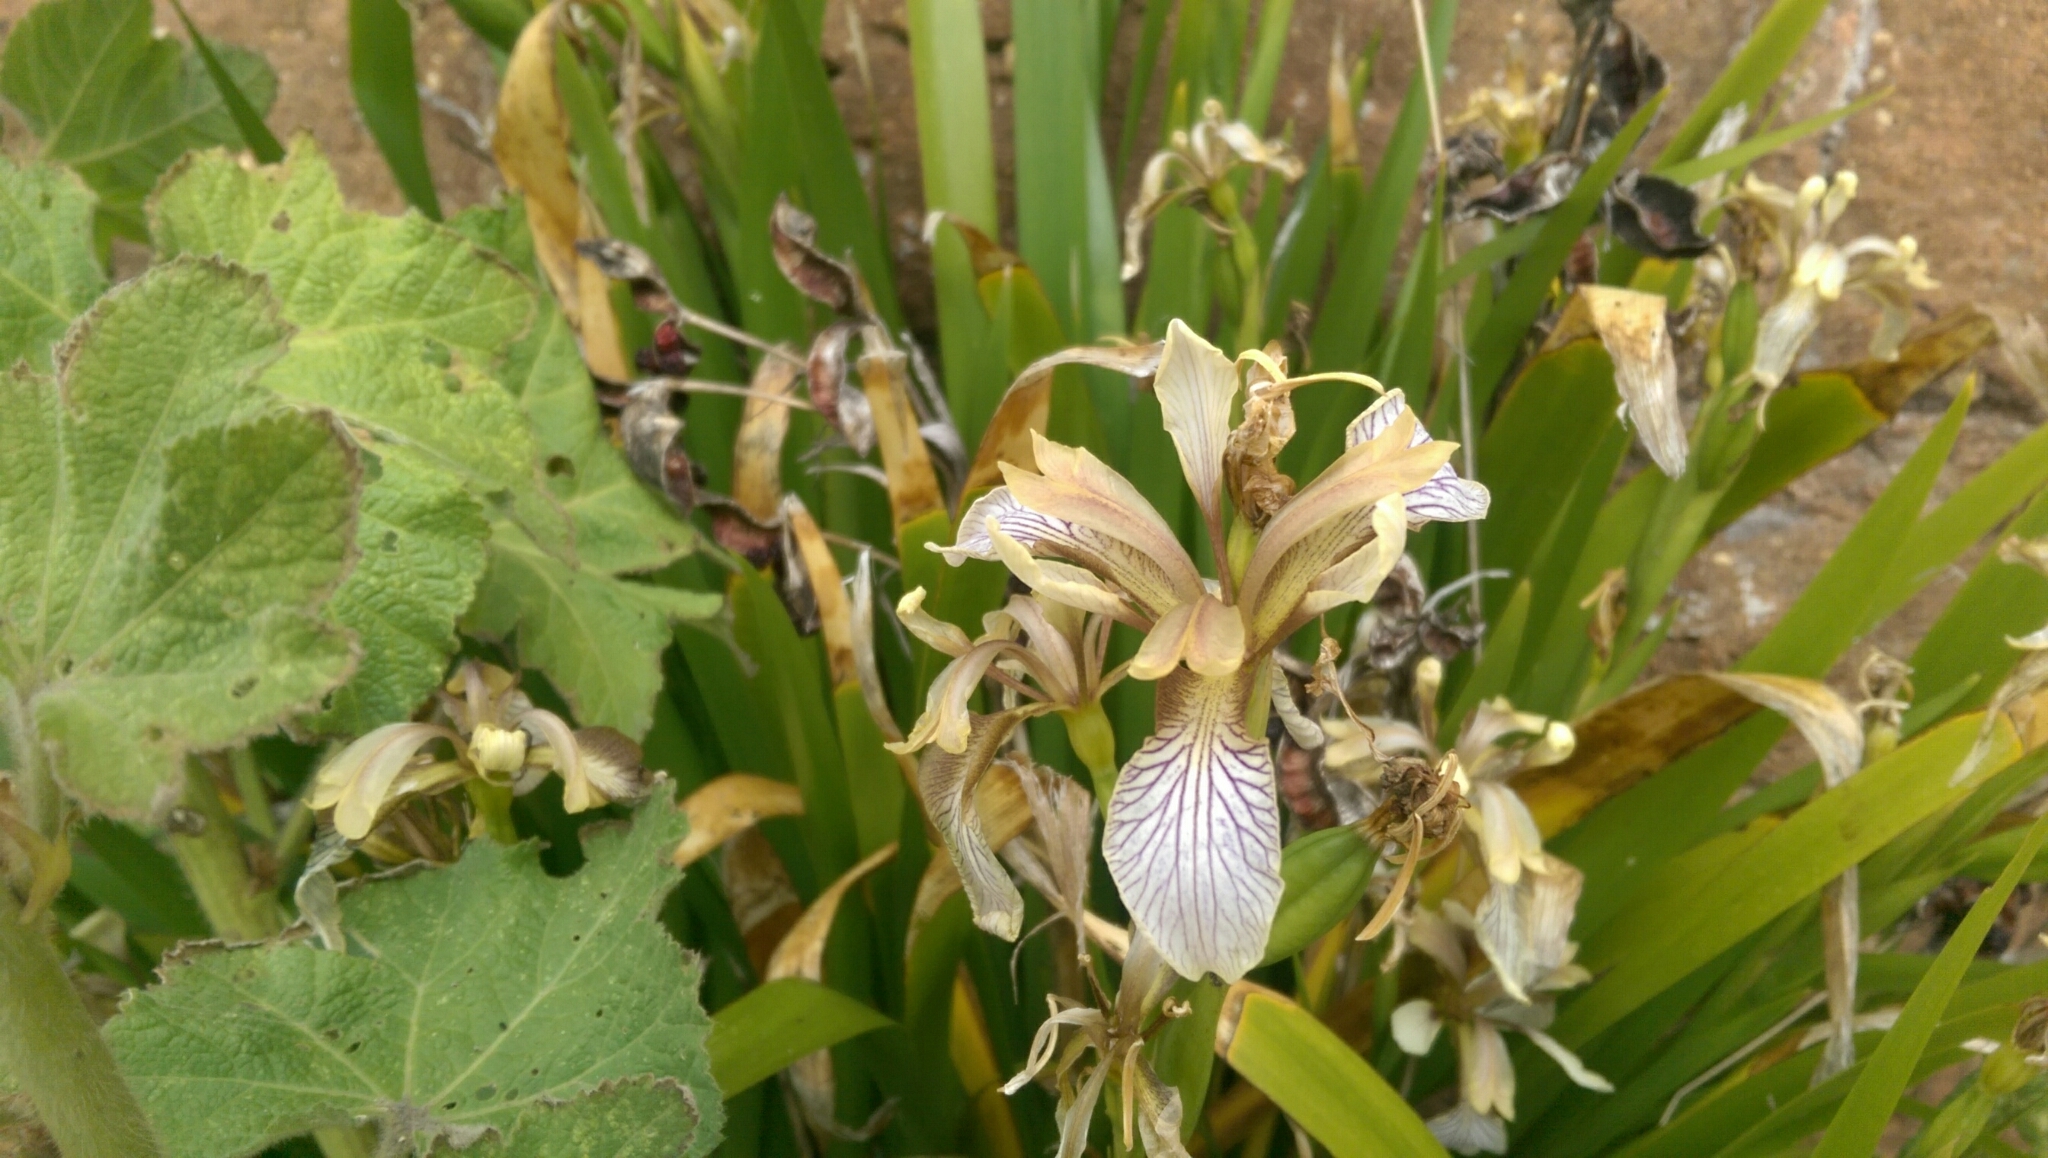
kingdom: Plantae
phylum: Tracheophyta
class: Liliopsida
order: Asparagales
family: Iridaceae
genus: Iris
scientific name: Iris foetidissima
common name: Stinking iris
